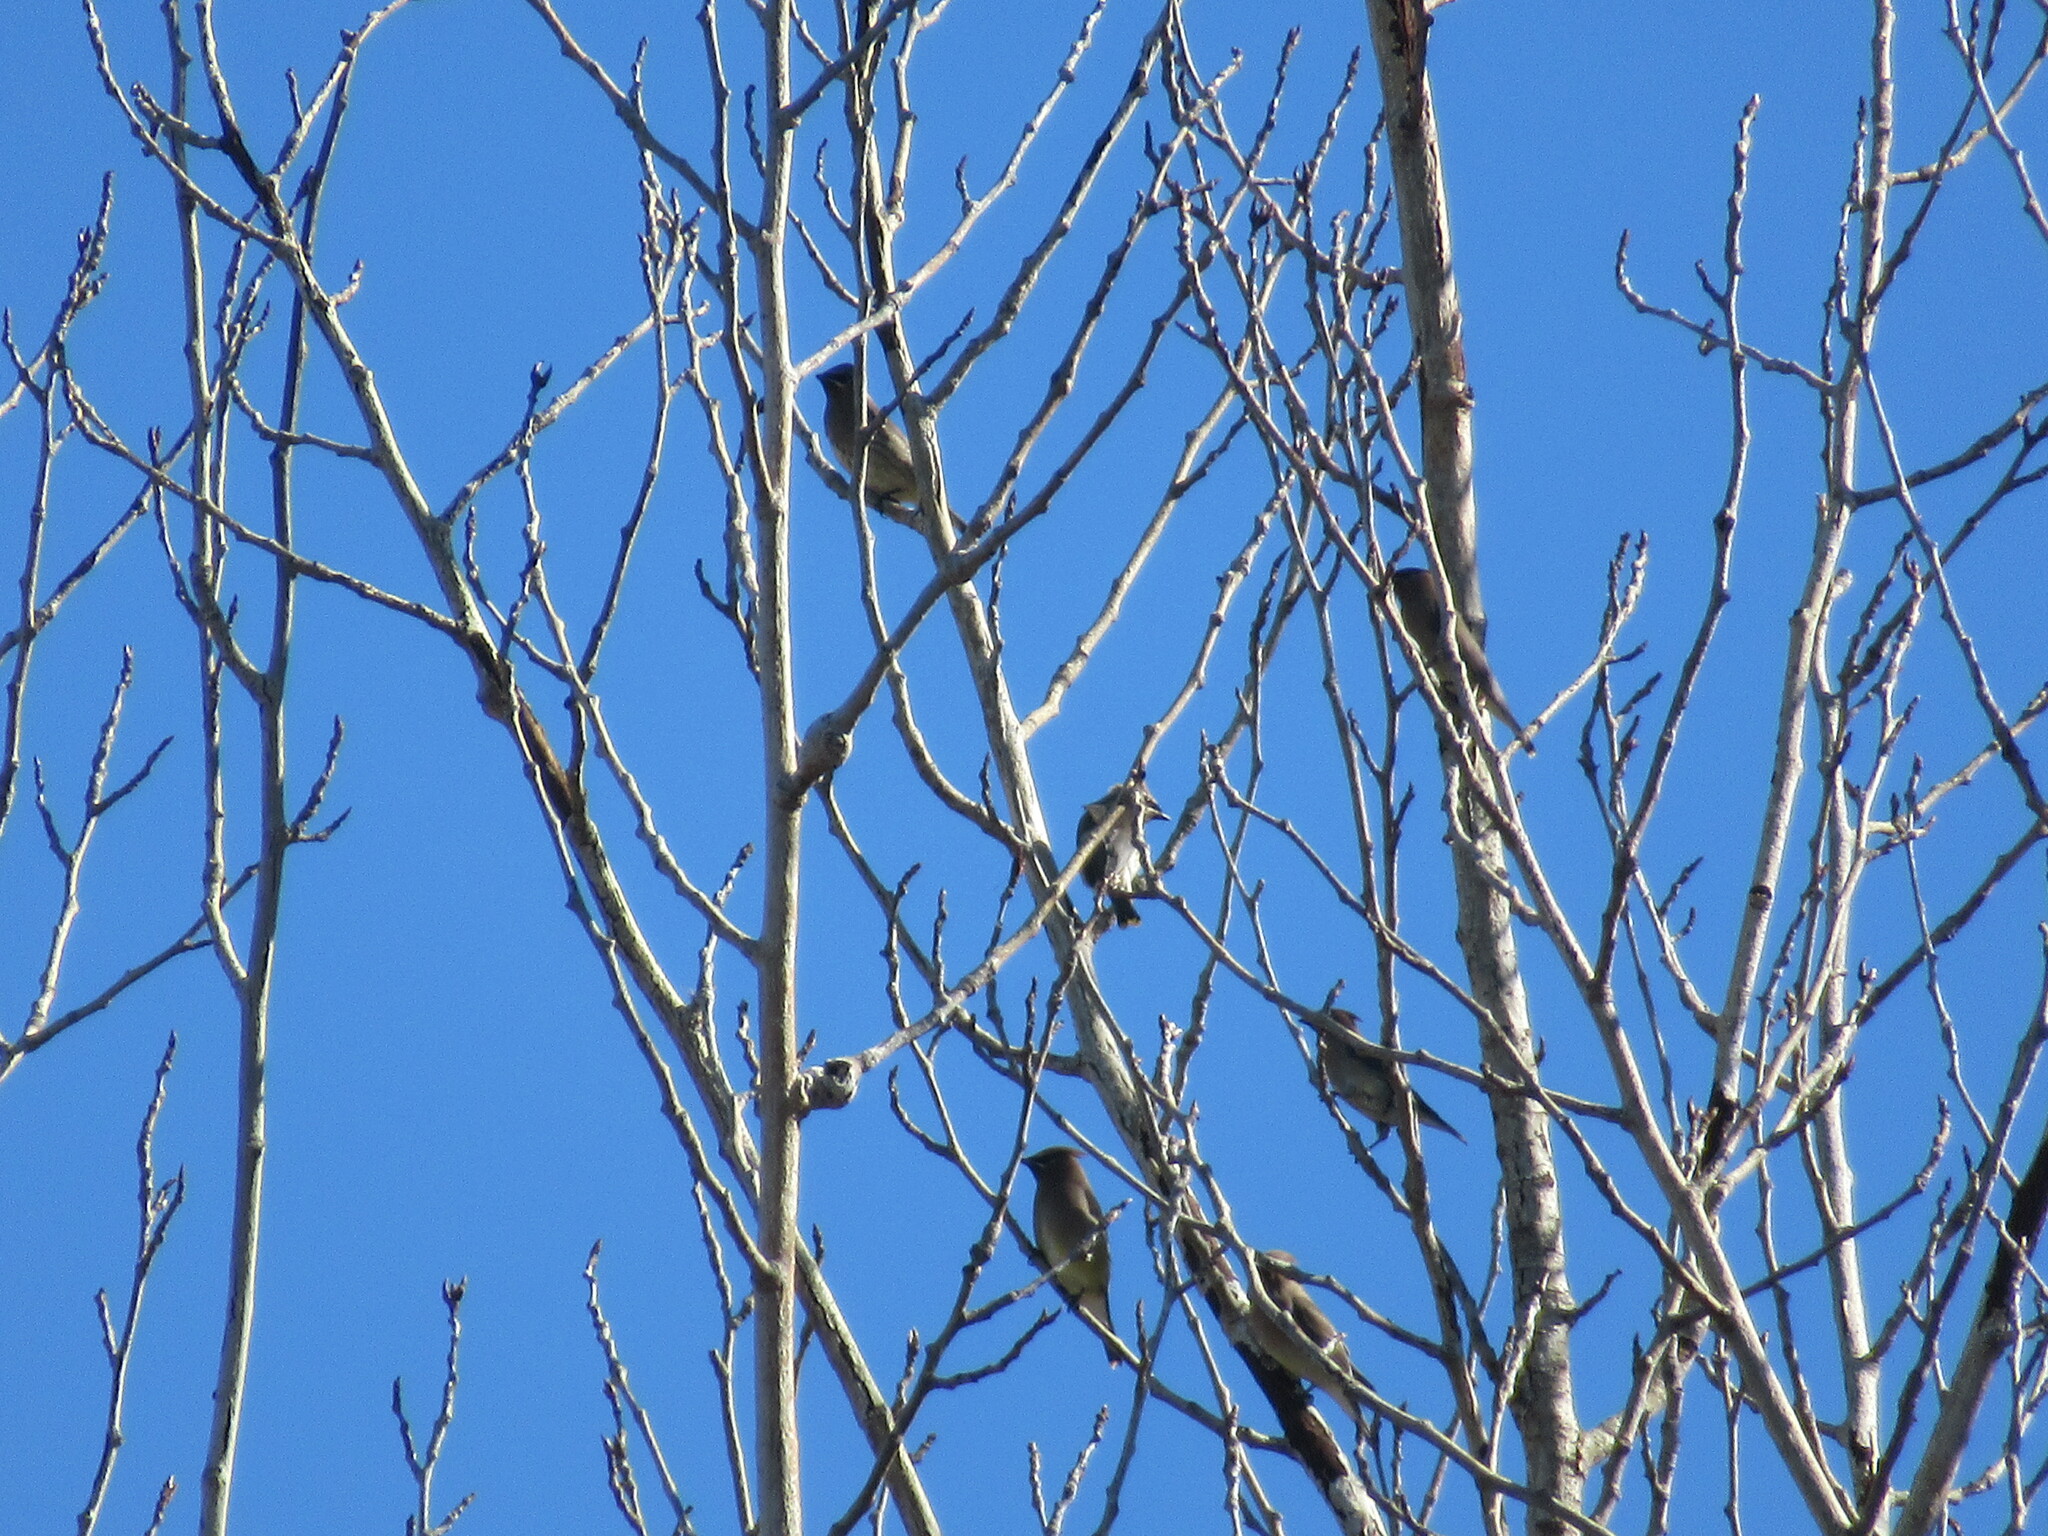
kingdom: Animalia
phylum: Chordata
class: Aves
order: Passeriformes
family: Bombycillidae
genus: Bombycilla
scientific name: Bombycilla cedrorum
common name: Cedar waxwing
